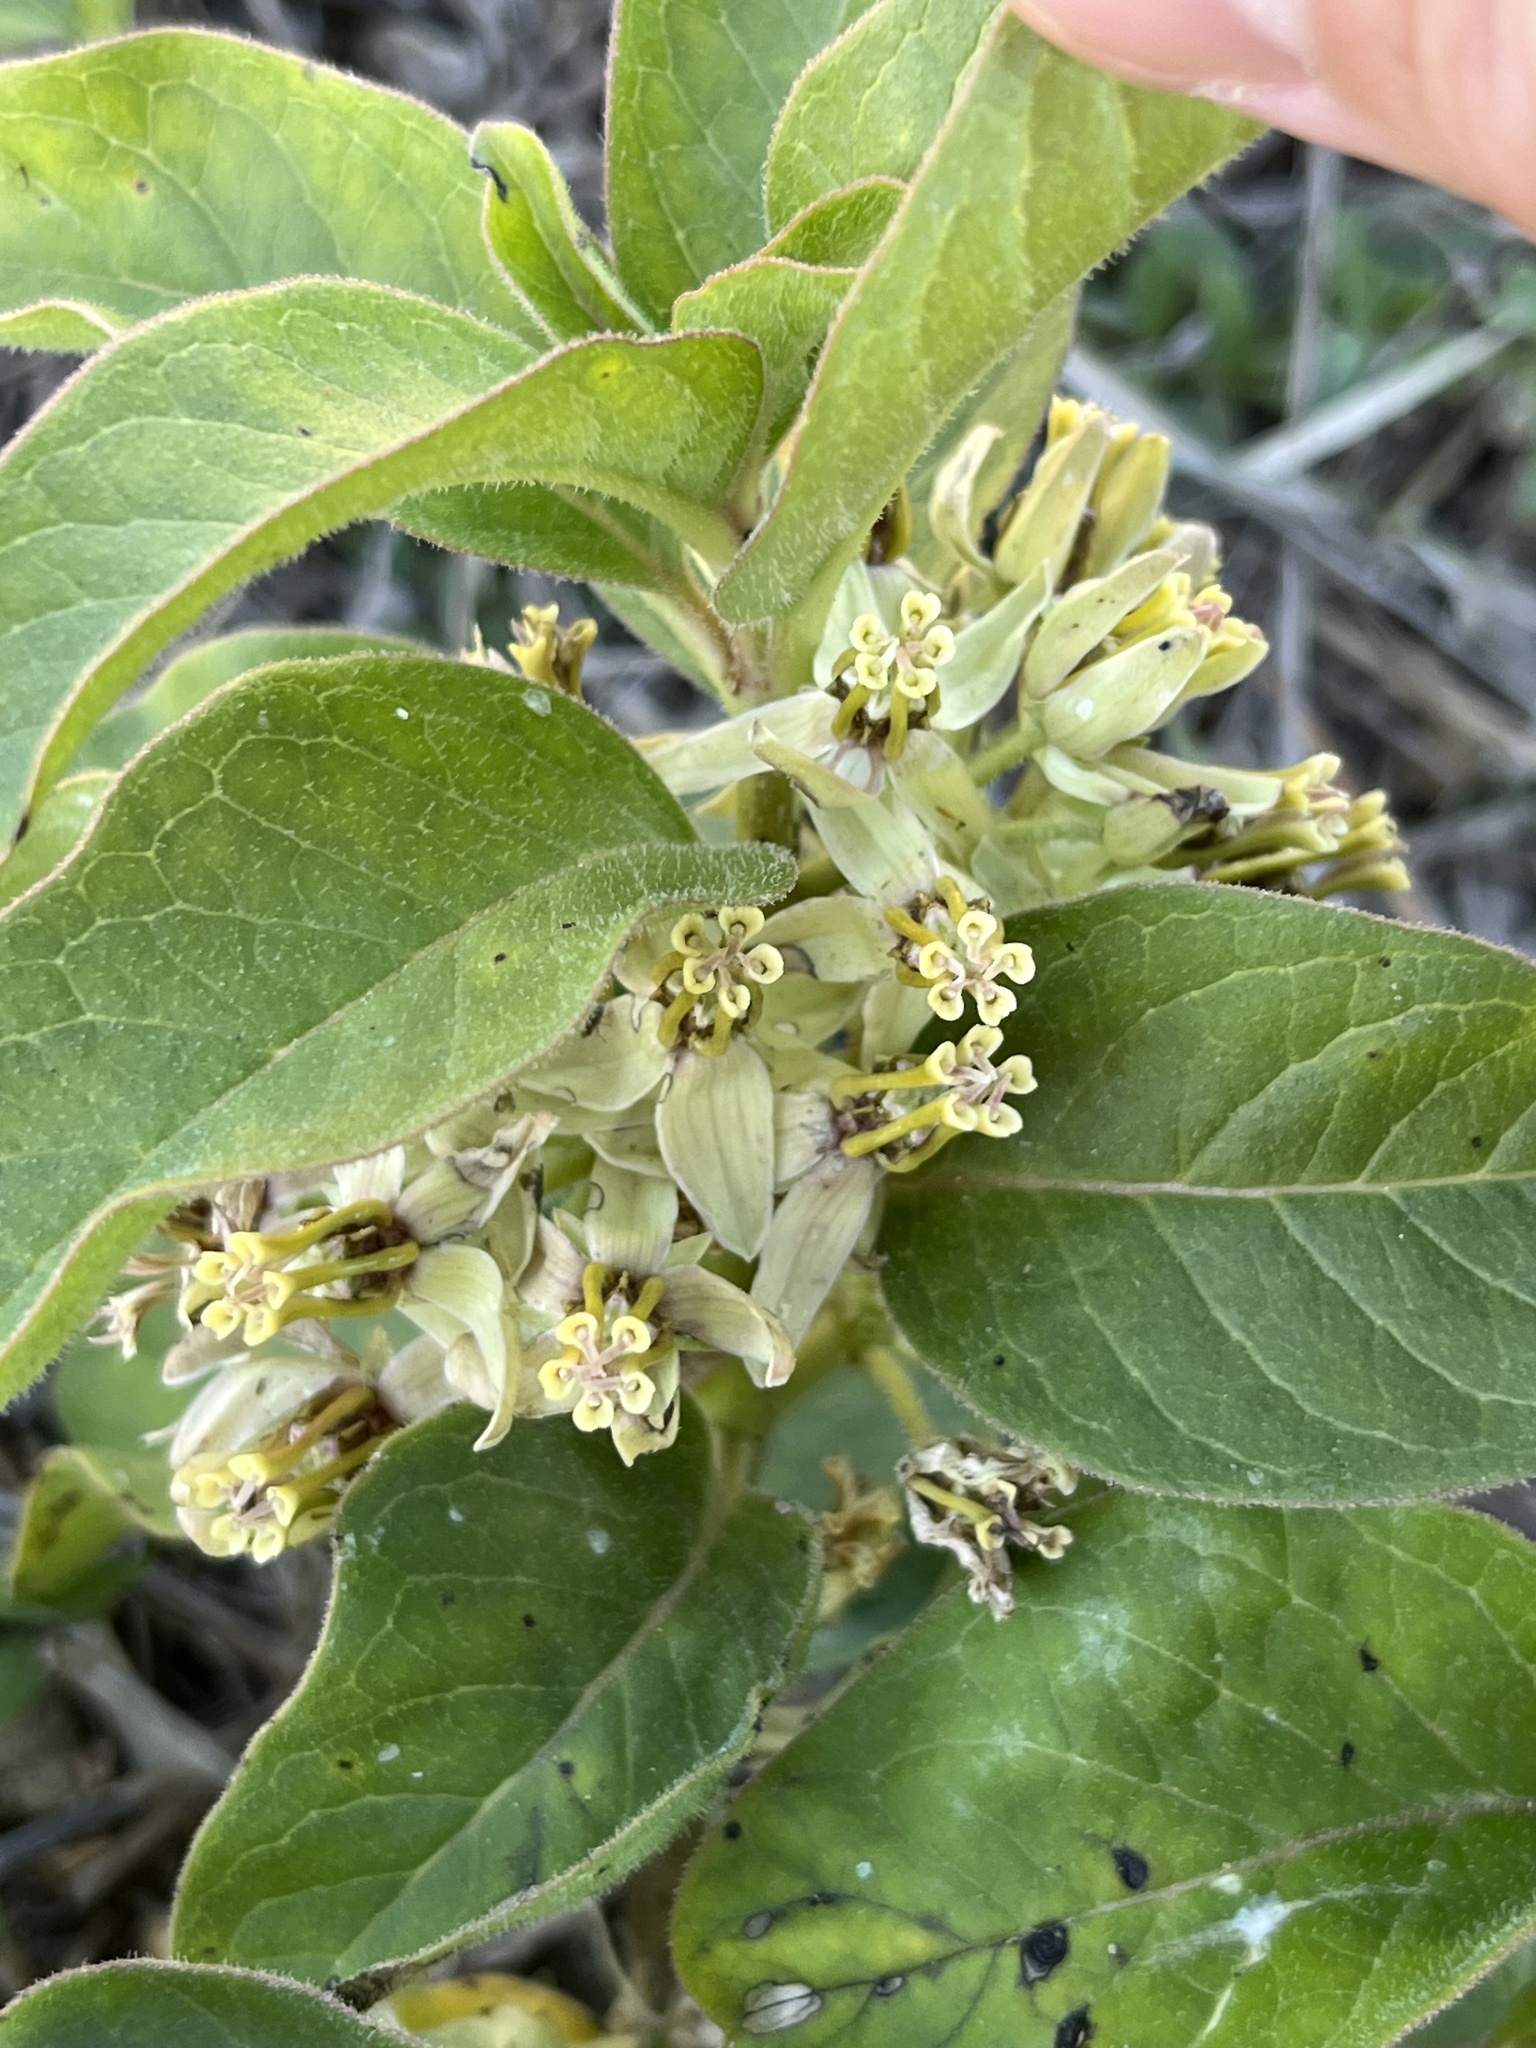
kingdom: Plantae
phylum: Tracheophyta
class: Magnoliopsida
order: Gentianales
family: Apocynaceae
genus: Asclepias
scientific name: Asclepias oenotheroides
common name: Zizotes milkweed
